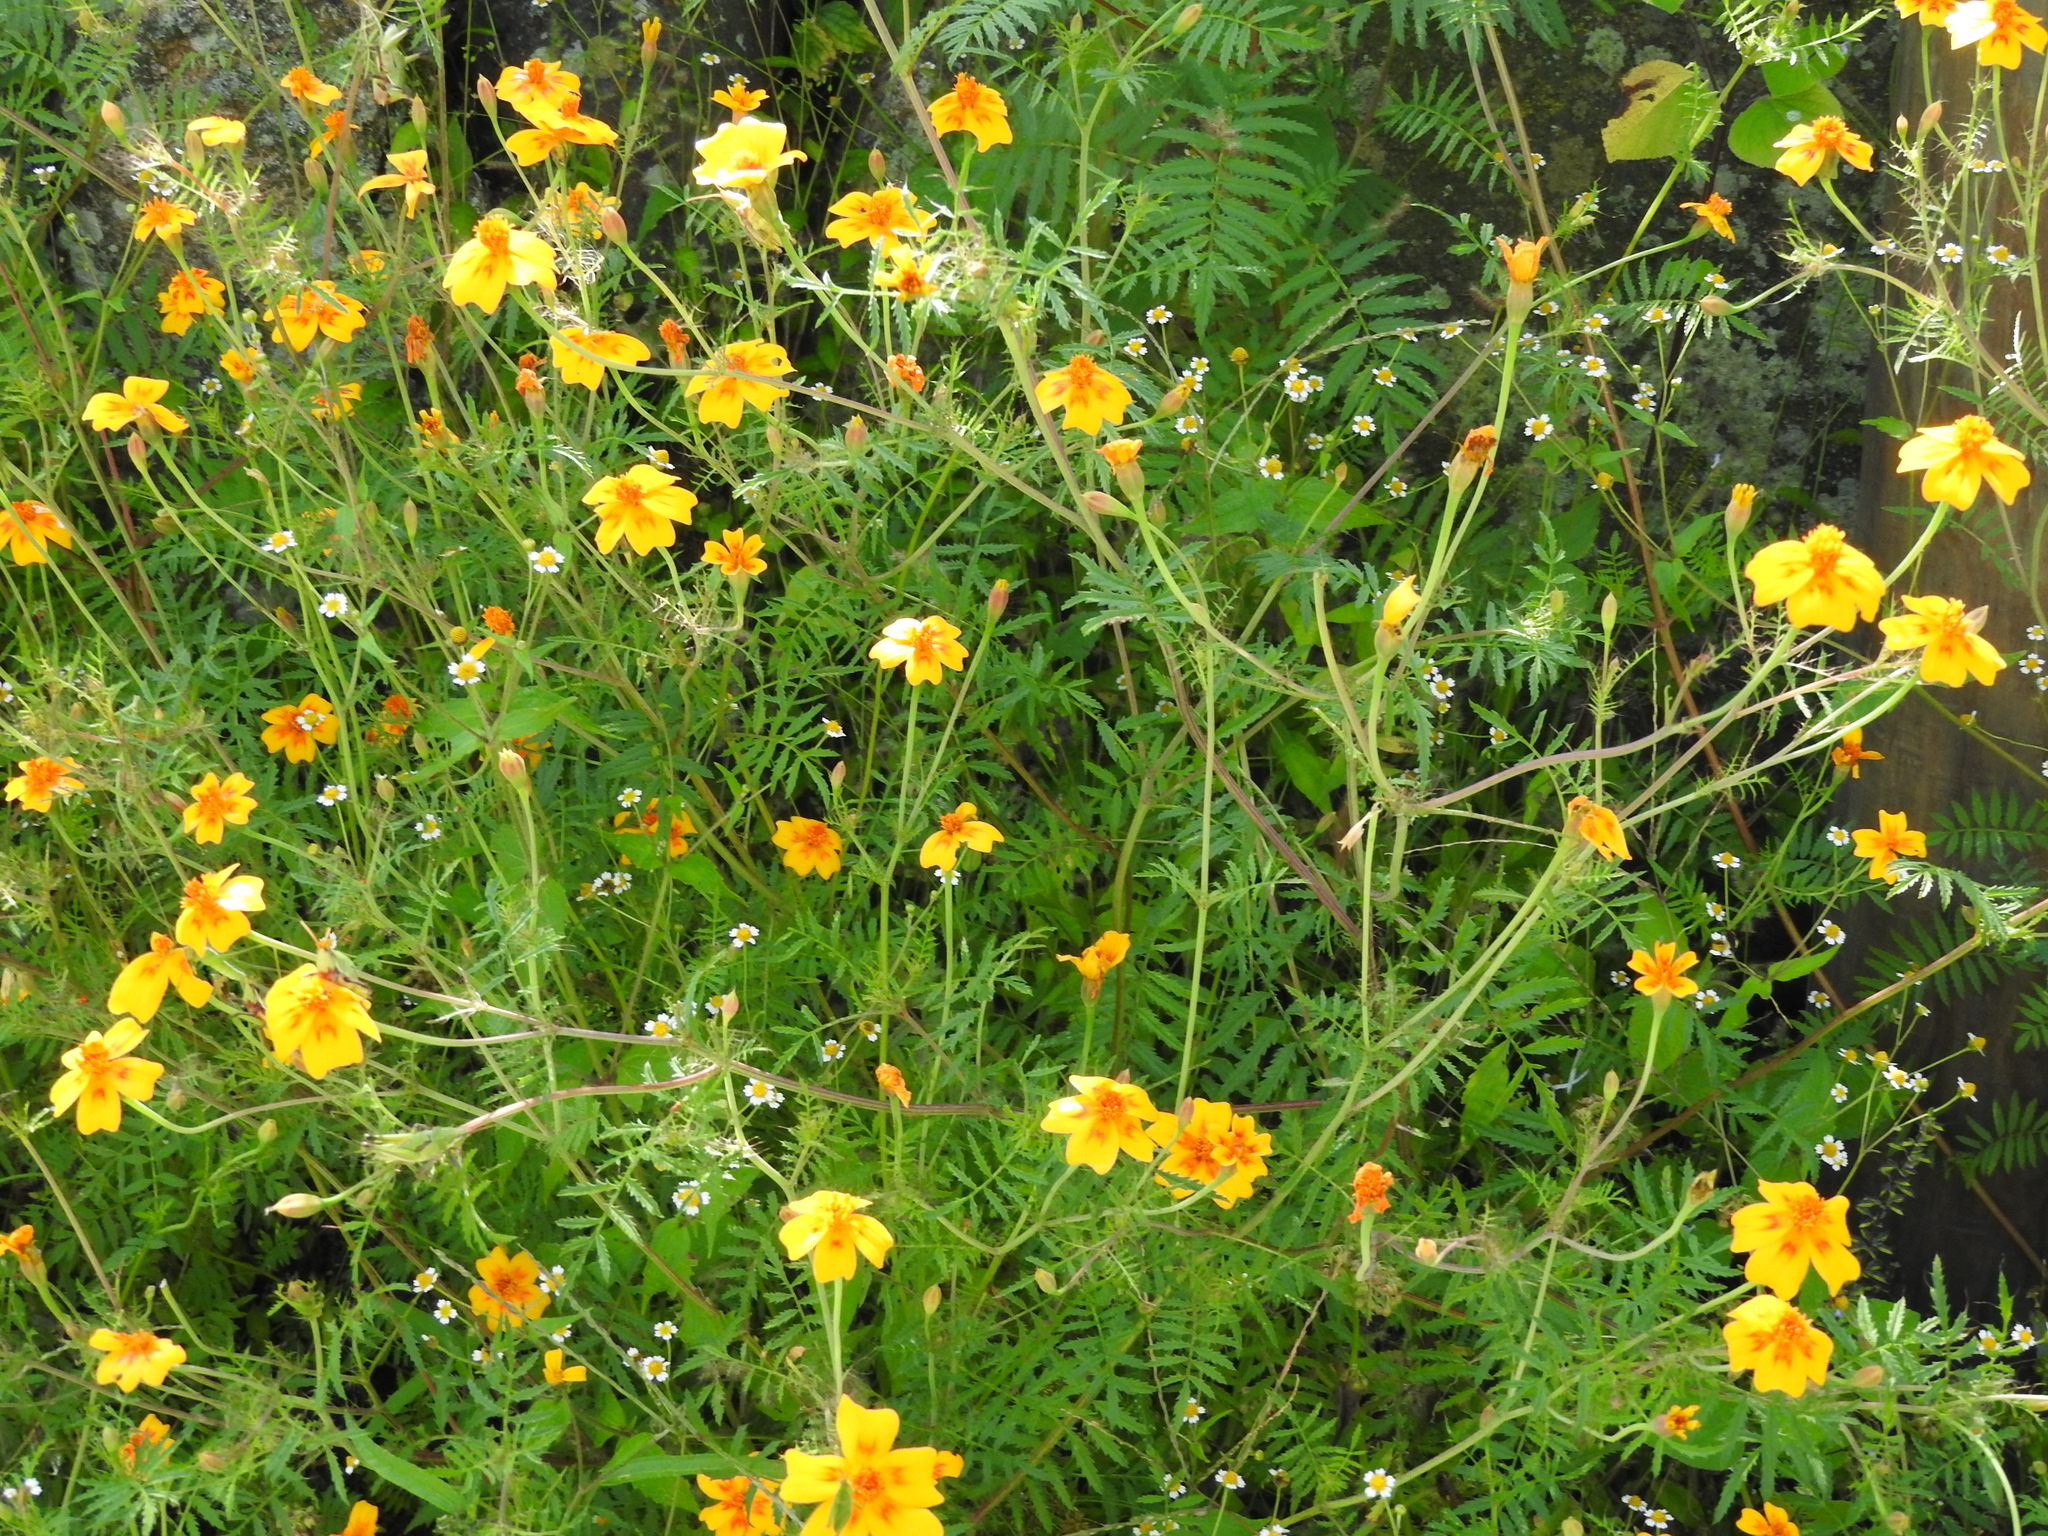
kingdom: Plantae
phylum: Tracheophyta
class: Magnoliopsida
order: Asterales
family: Asteraceae
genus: Tagetes
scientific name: Tagetes lunulata
